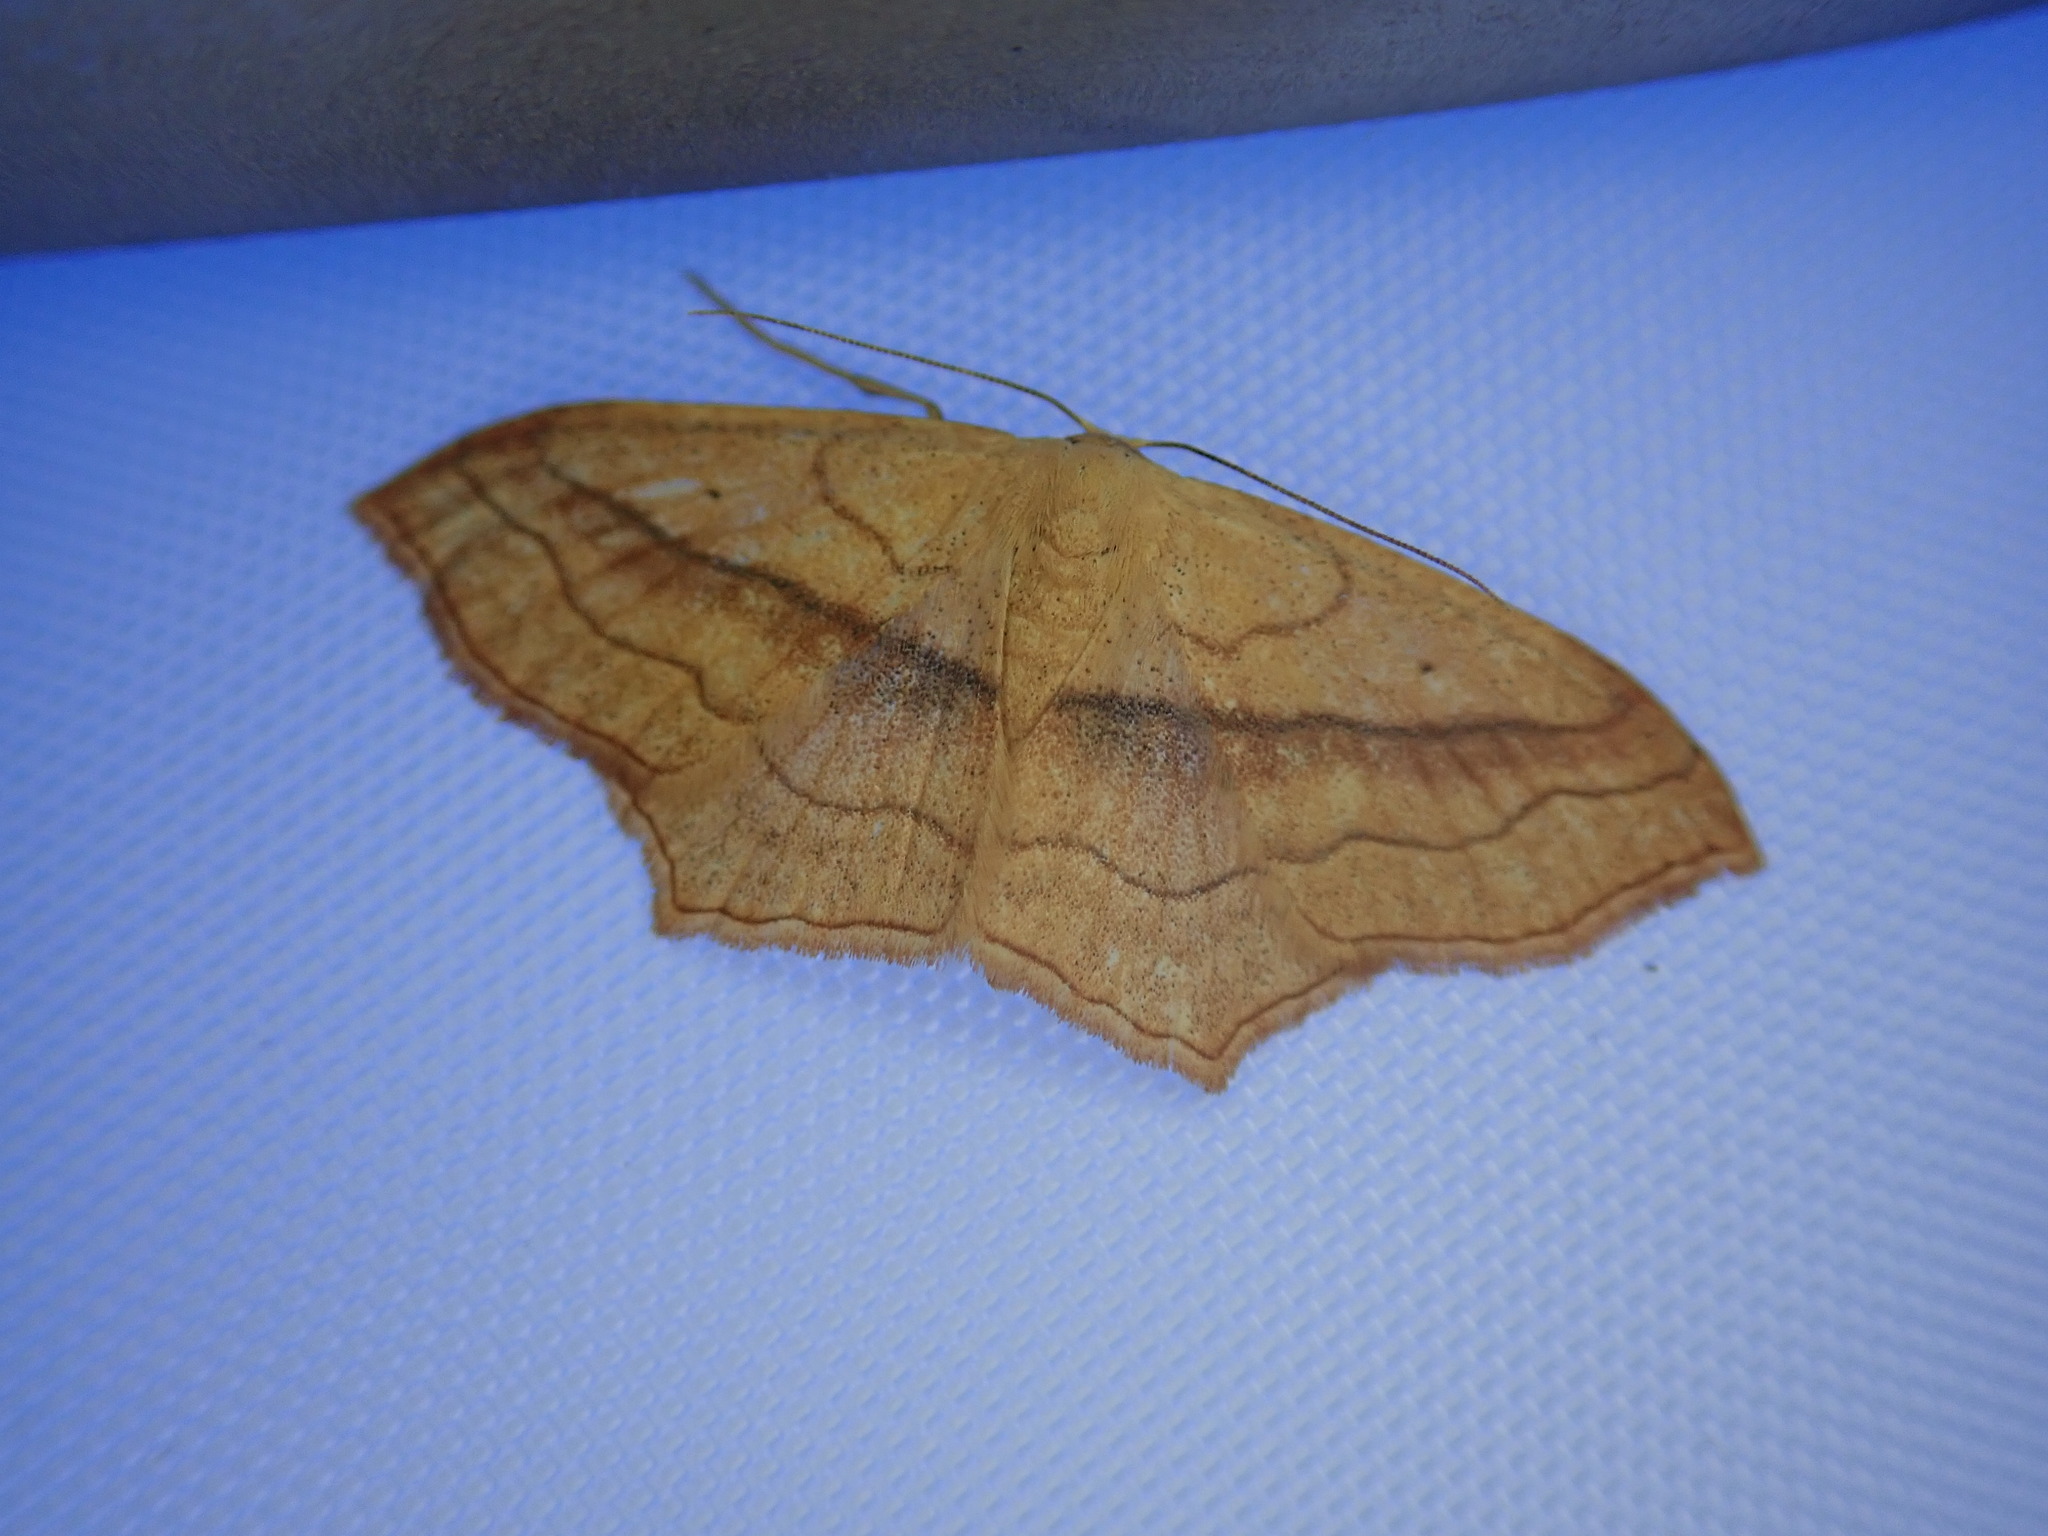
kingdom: Animalia
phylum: Arthropoda
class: Insecta
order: Lepidoptera
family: Geometridae
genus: Scopula
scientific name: Scopula imitaria
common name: Small blood-vein
